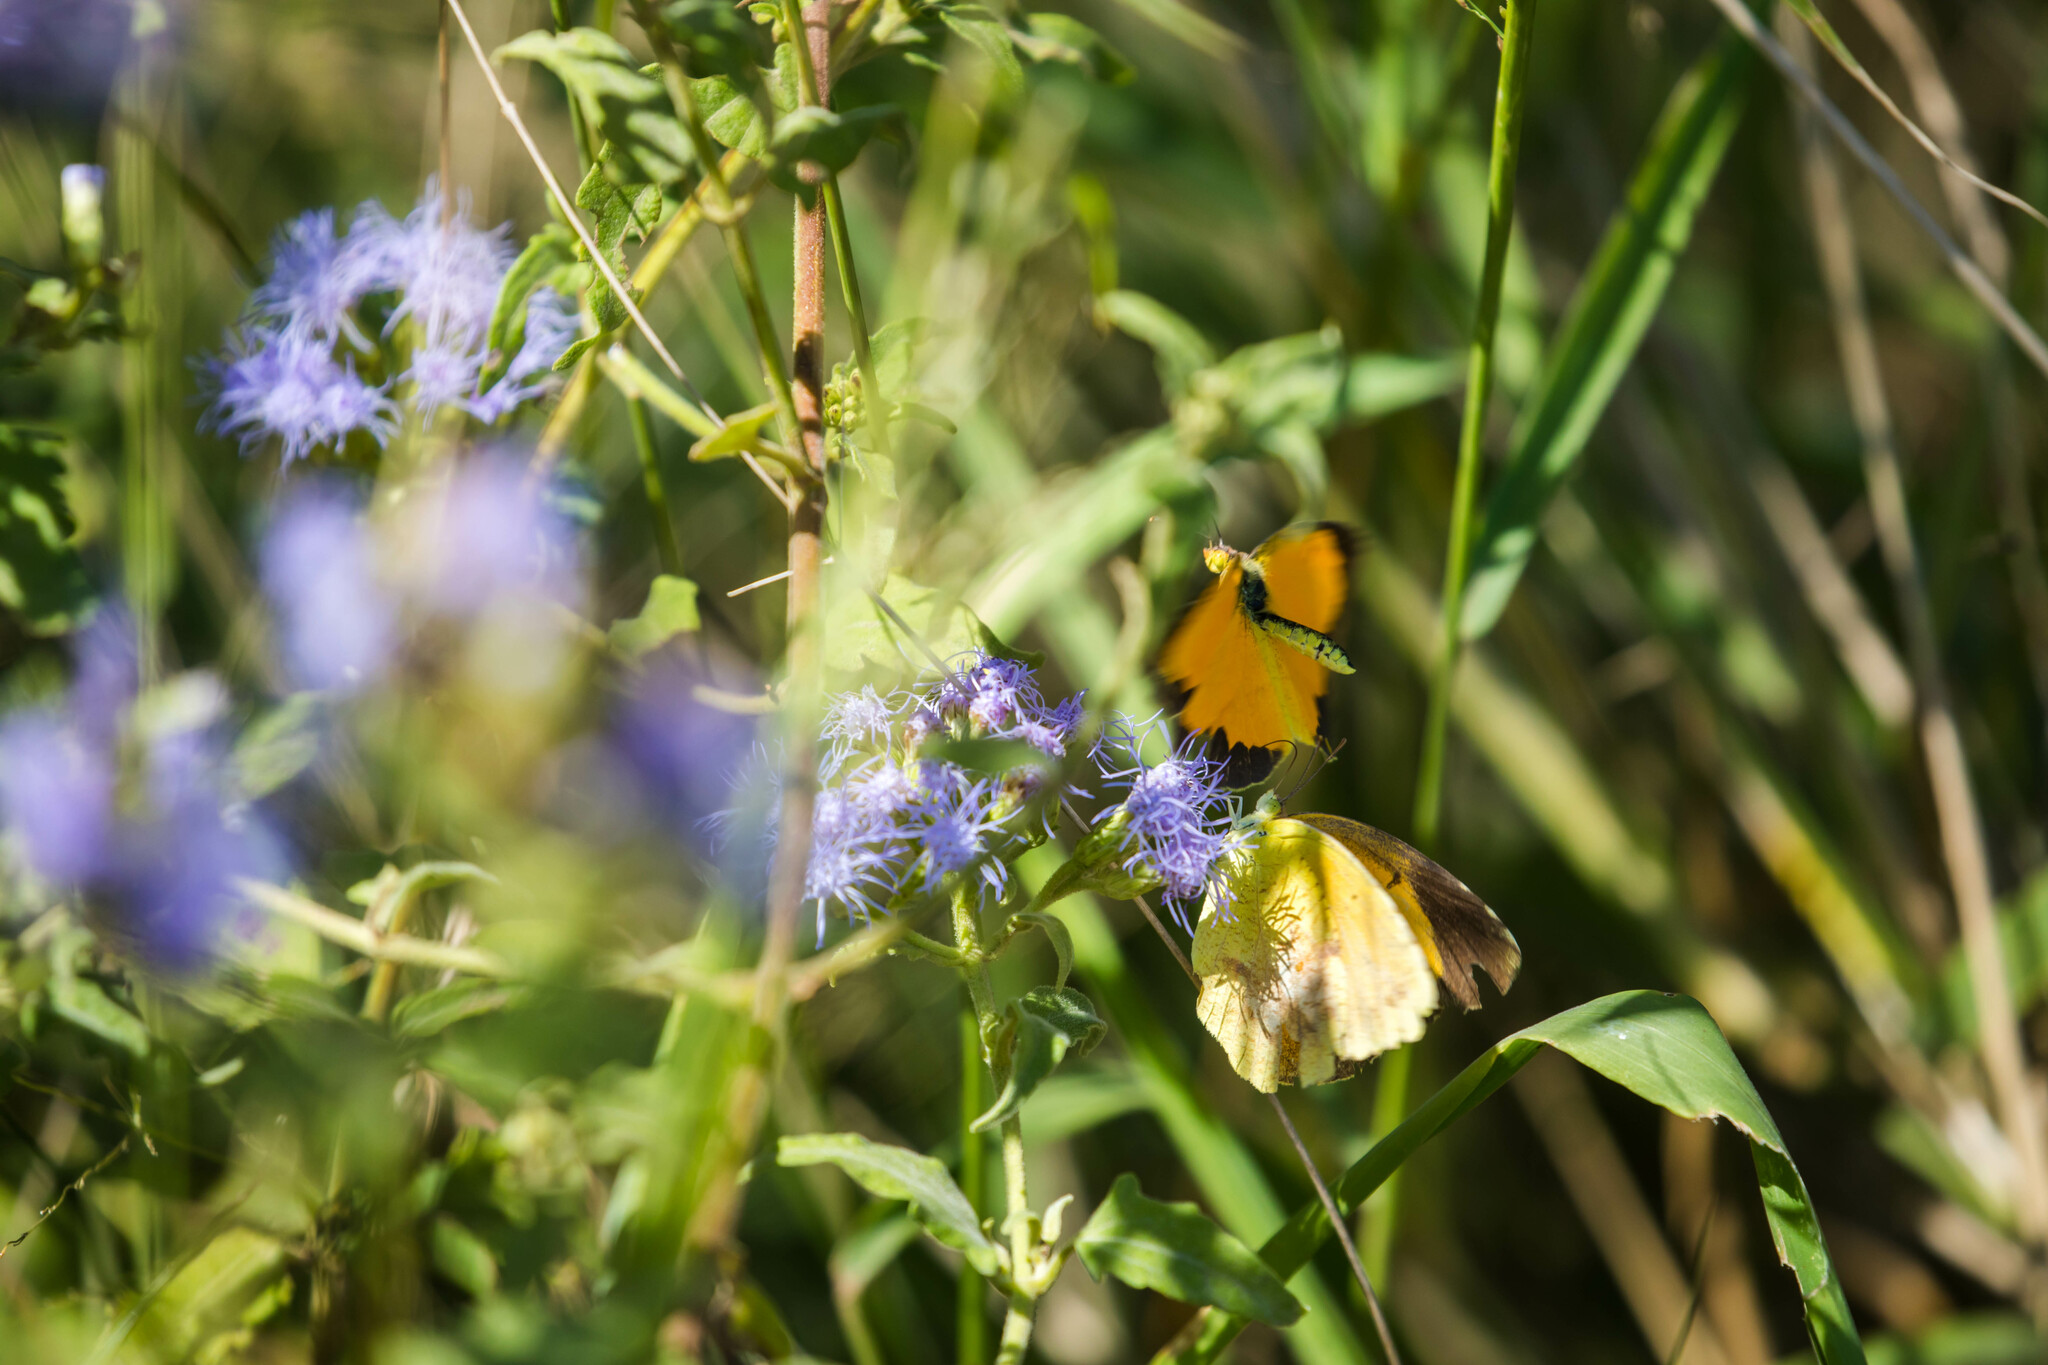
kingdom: Animalia
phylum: Arthropoda
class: Insecta
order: Lepidoptera
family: Pieridae
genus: Abaeis
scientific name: Abaeis nicippe
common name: Sleepy orange
